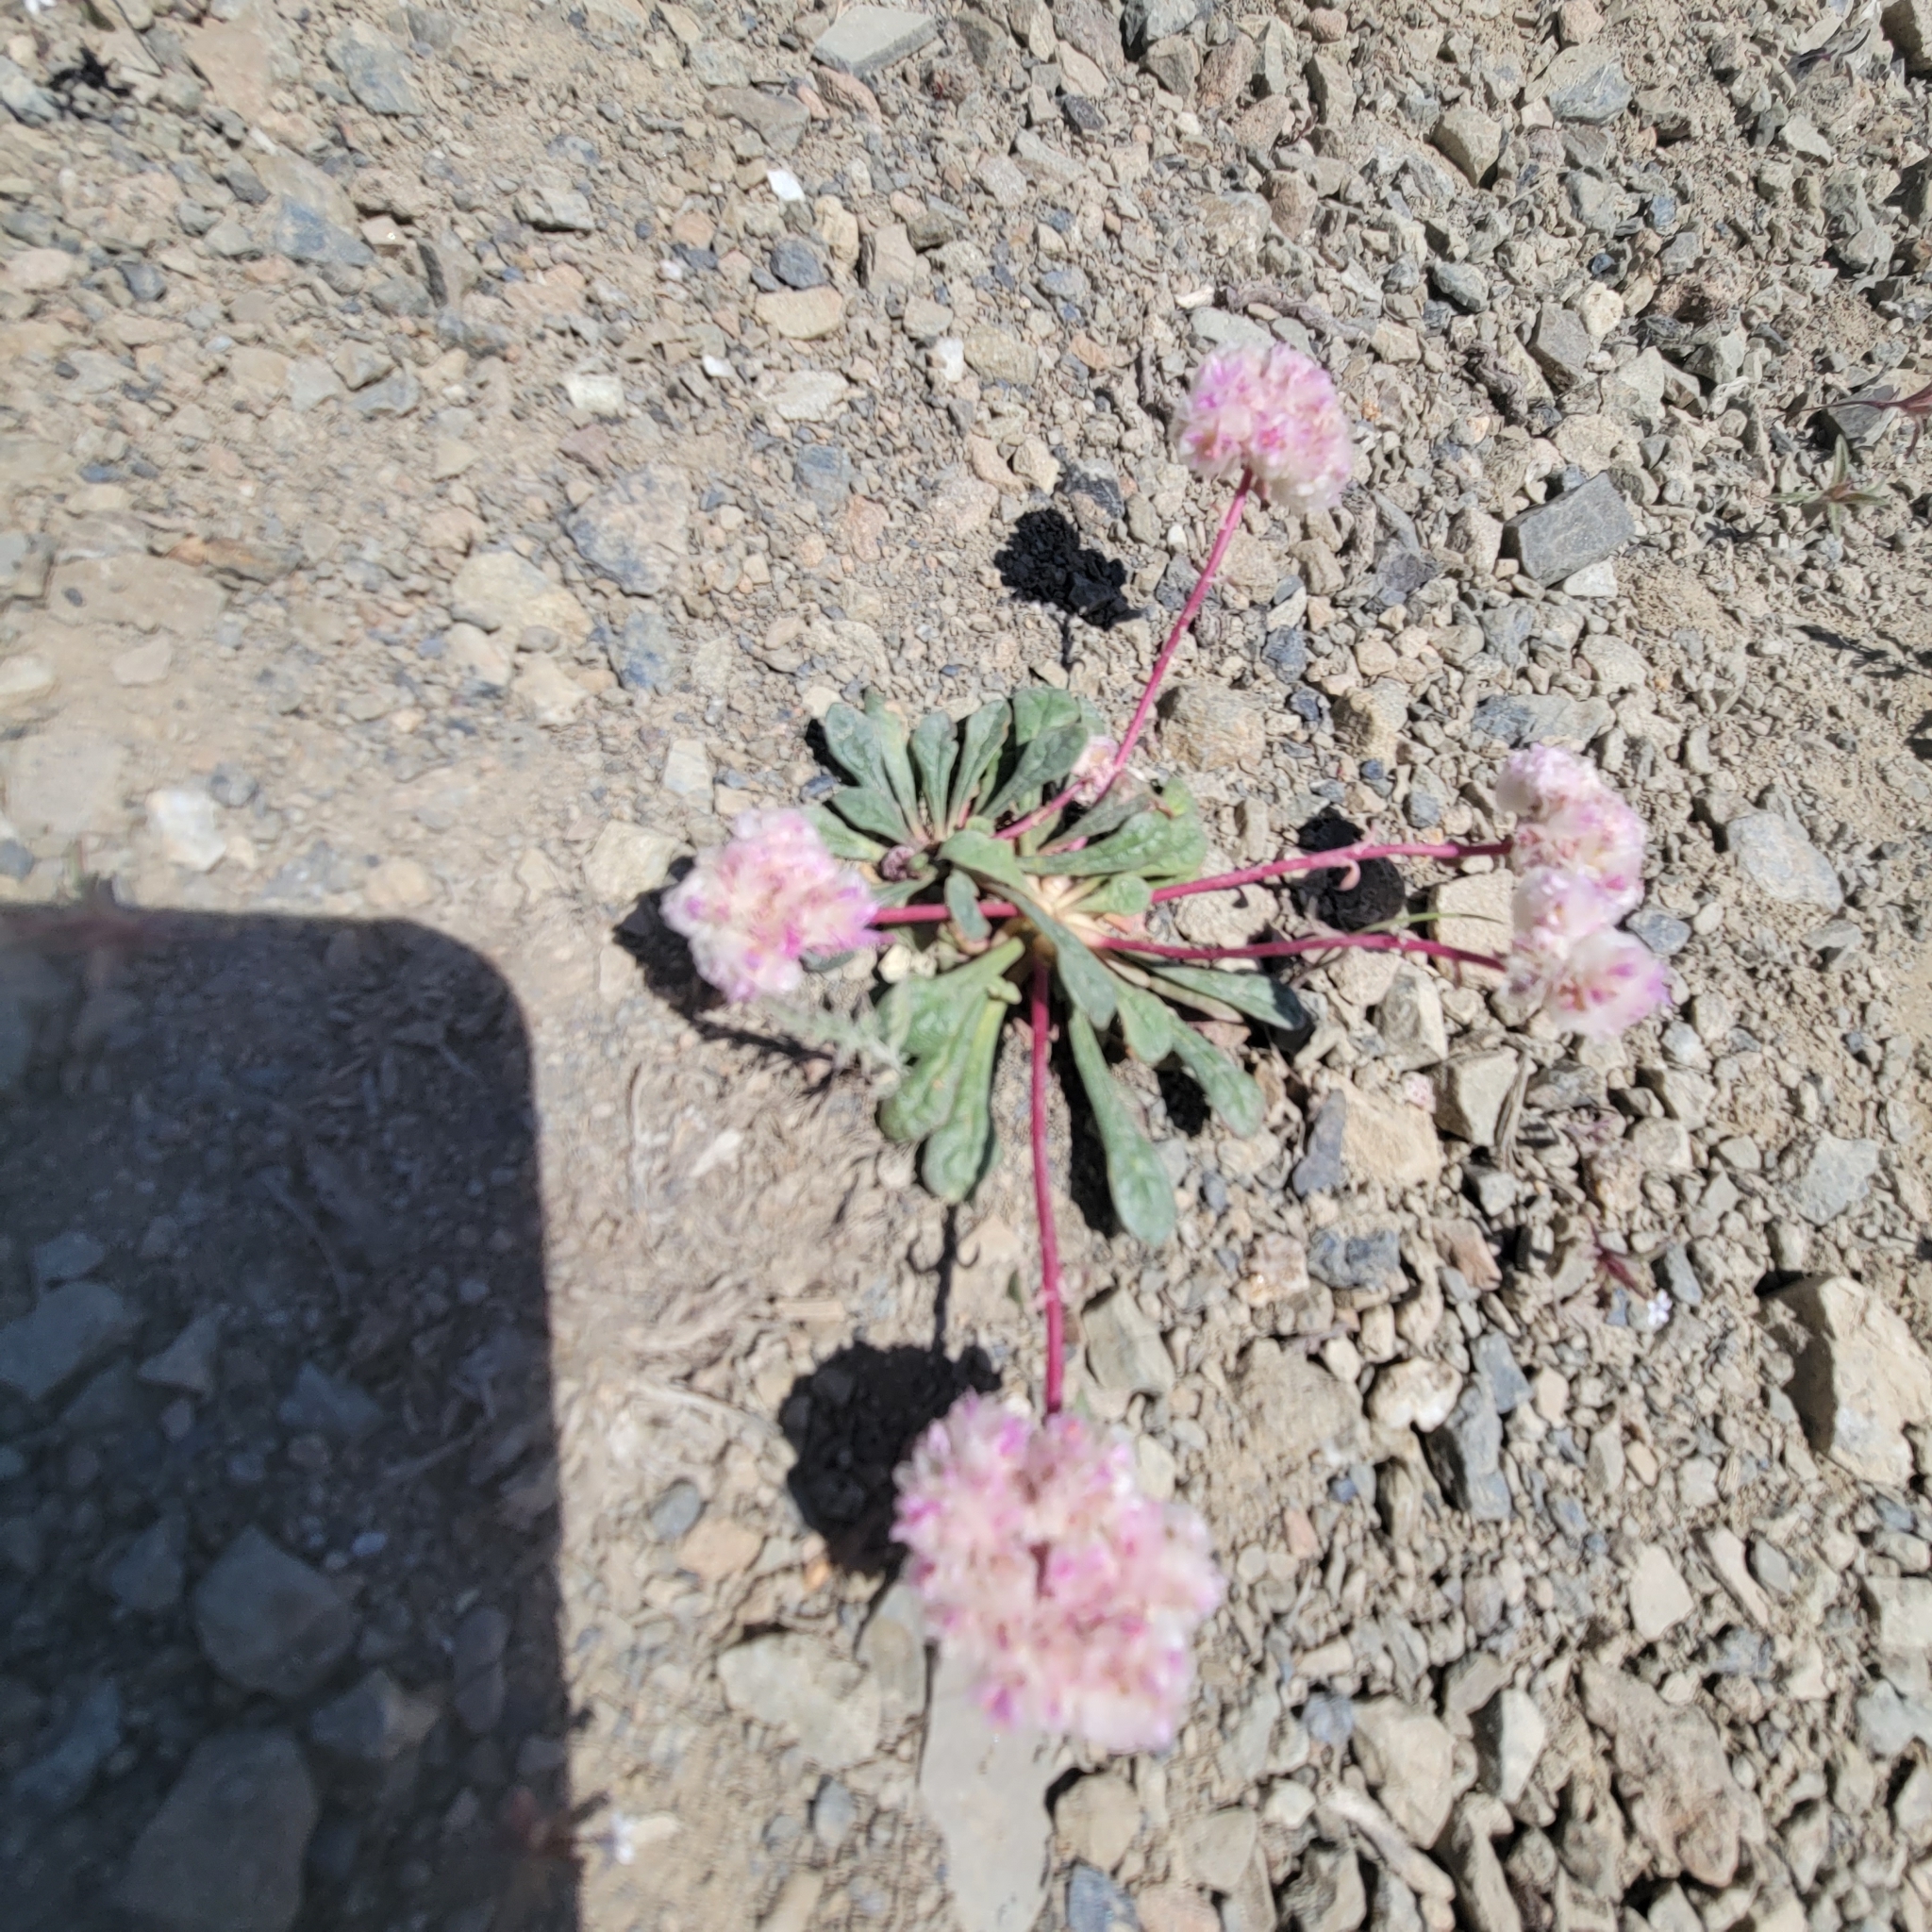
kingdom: Plantae
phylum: Tracheophyta
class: Magnoliopsida
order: Caryophyllales
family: Montiaceae
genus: Calyptridium
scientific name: Calyptridium monospermum
